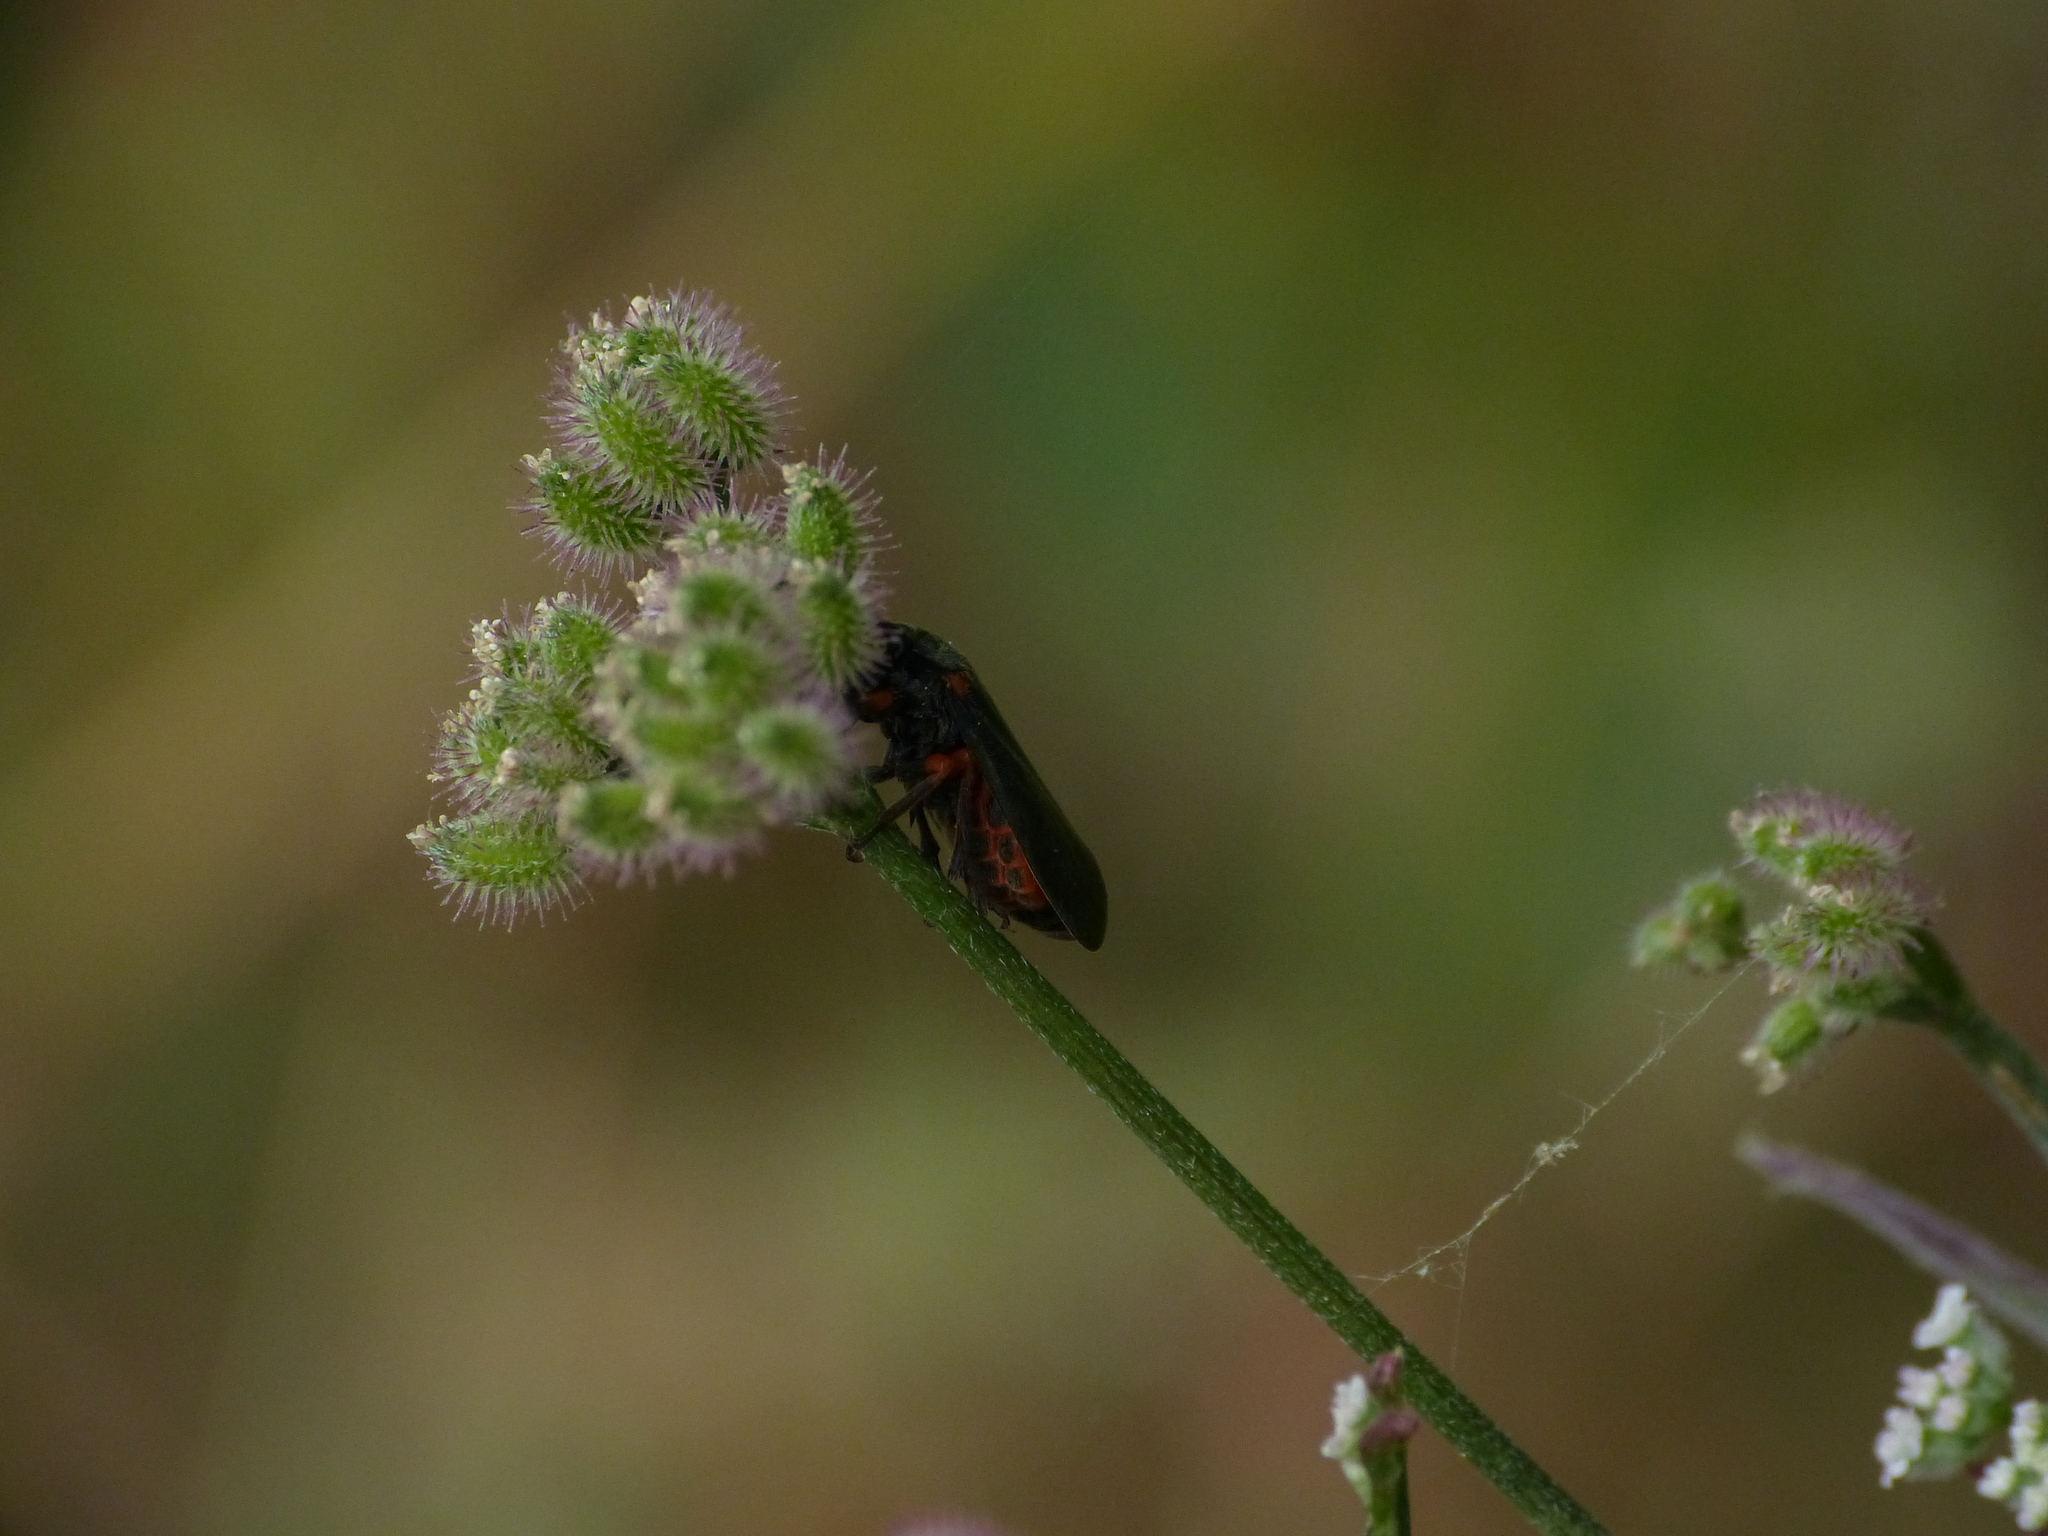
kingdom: Animalia
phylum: Arthropoda
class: Insecta
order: Hemiptera
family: Cercopidae
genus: Cercopis
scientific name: Cercopis intermedia
